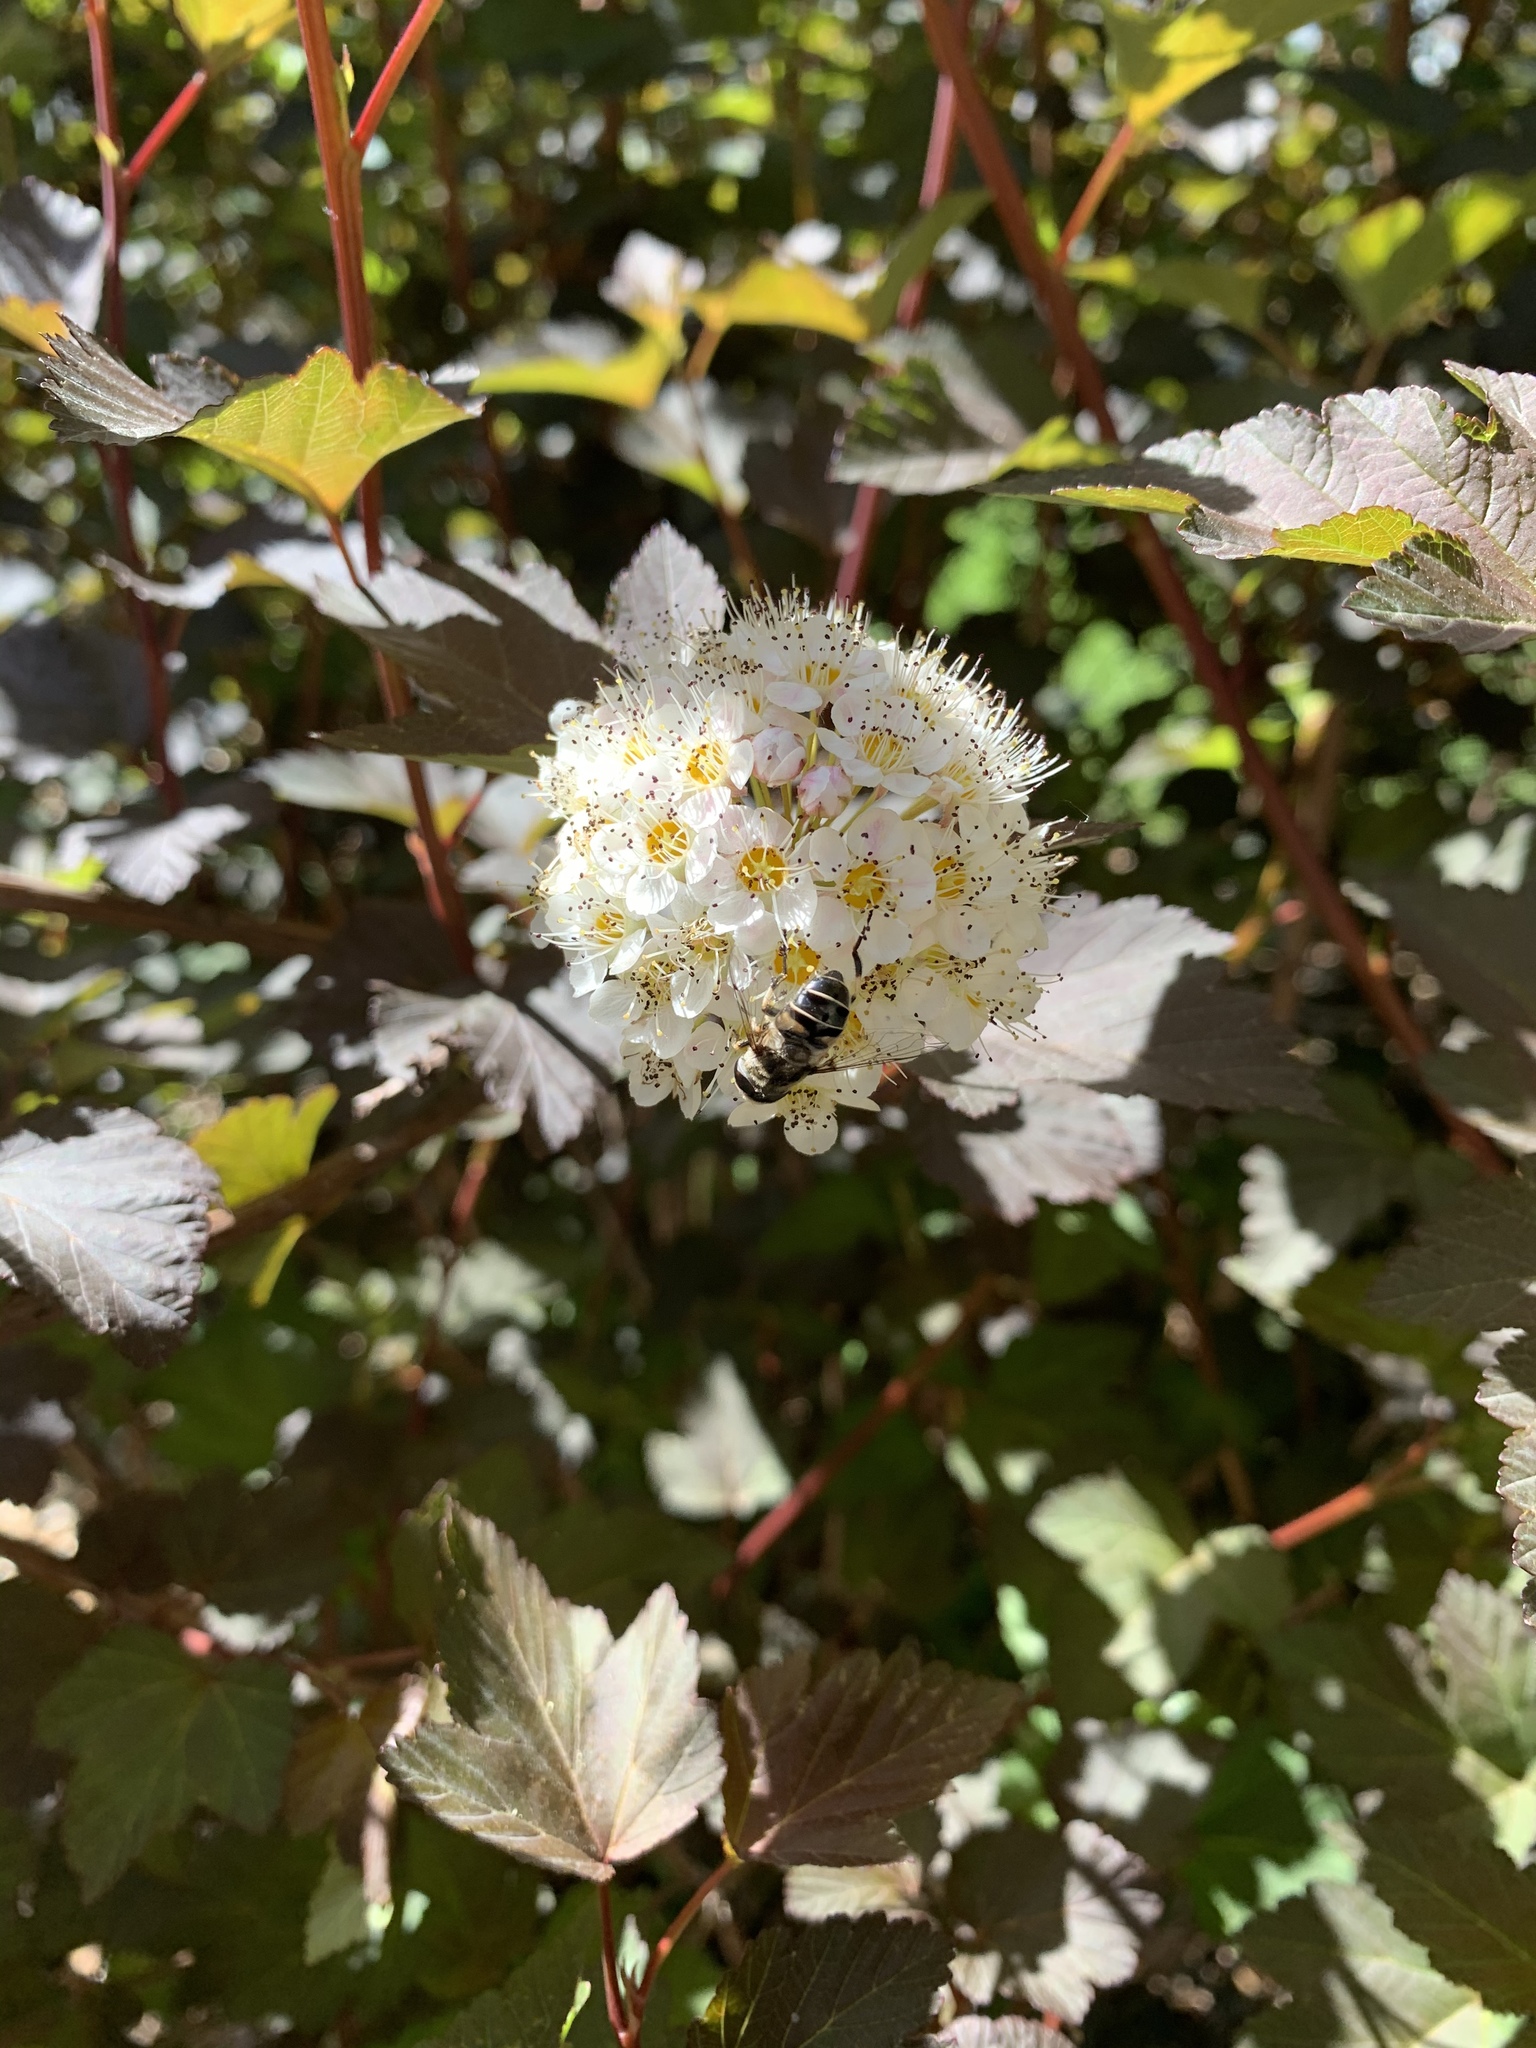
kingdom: Animalia
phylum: Arthropoda
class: Insecta
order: Diptera
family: Syrphidae
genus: Eristalis
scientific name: Eristalis dimidiata
